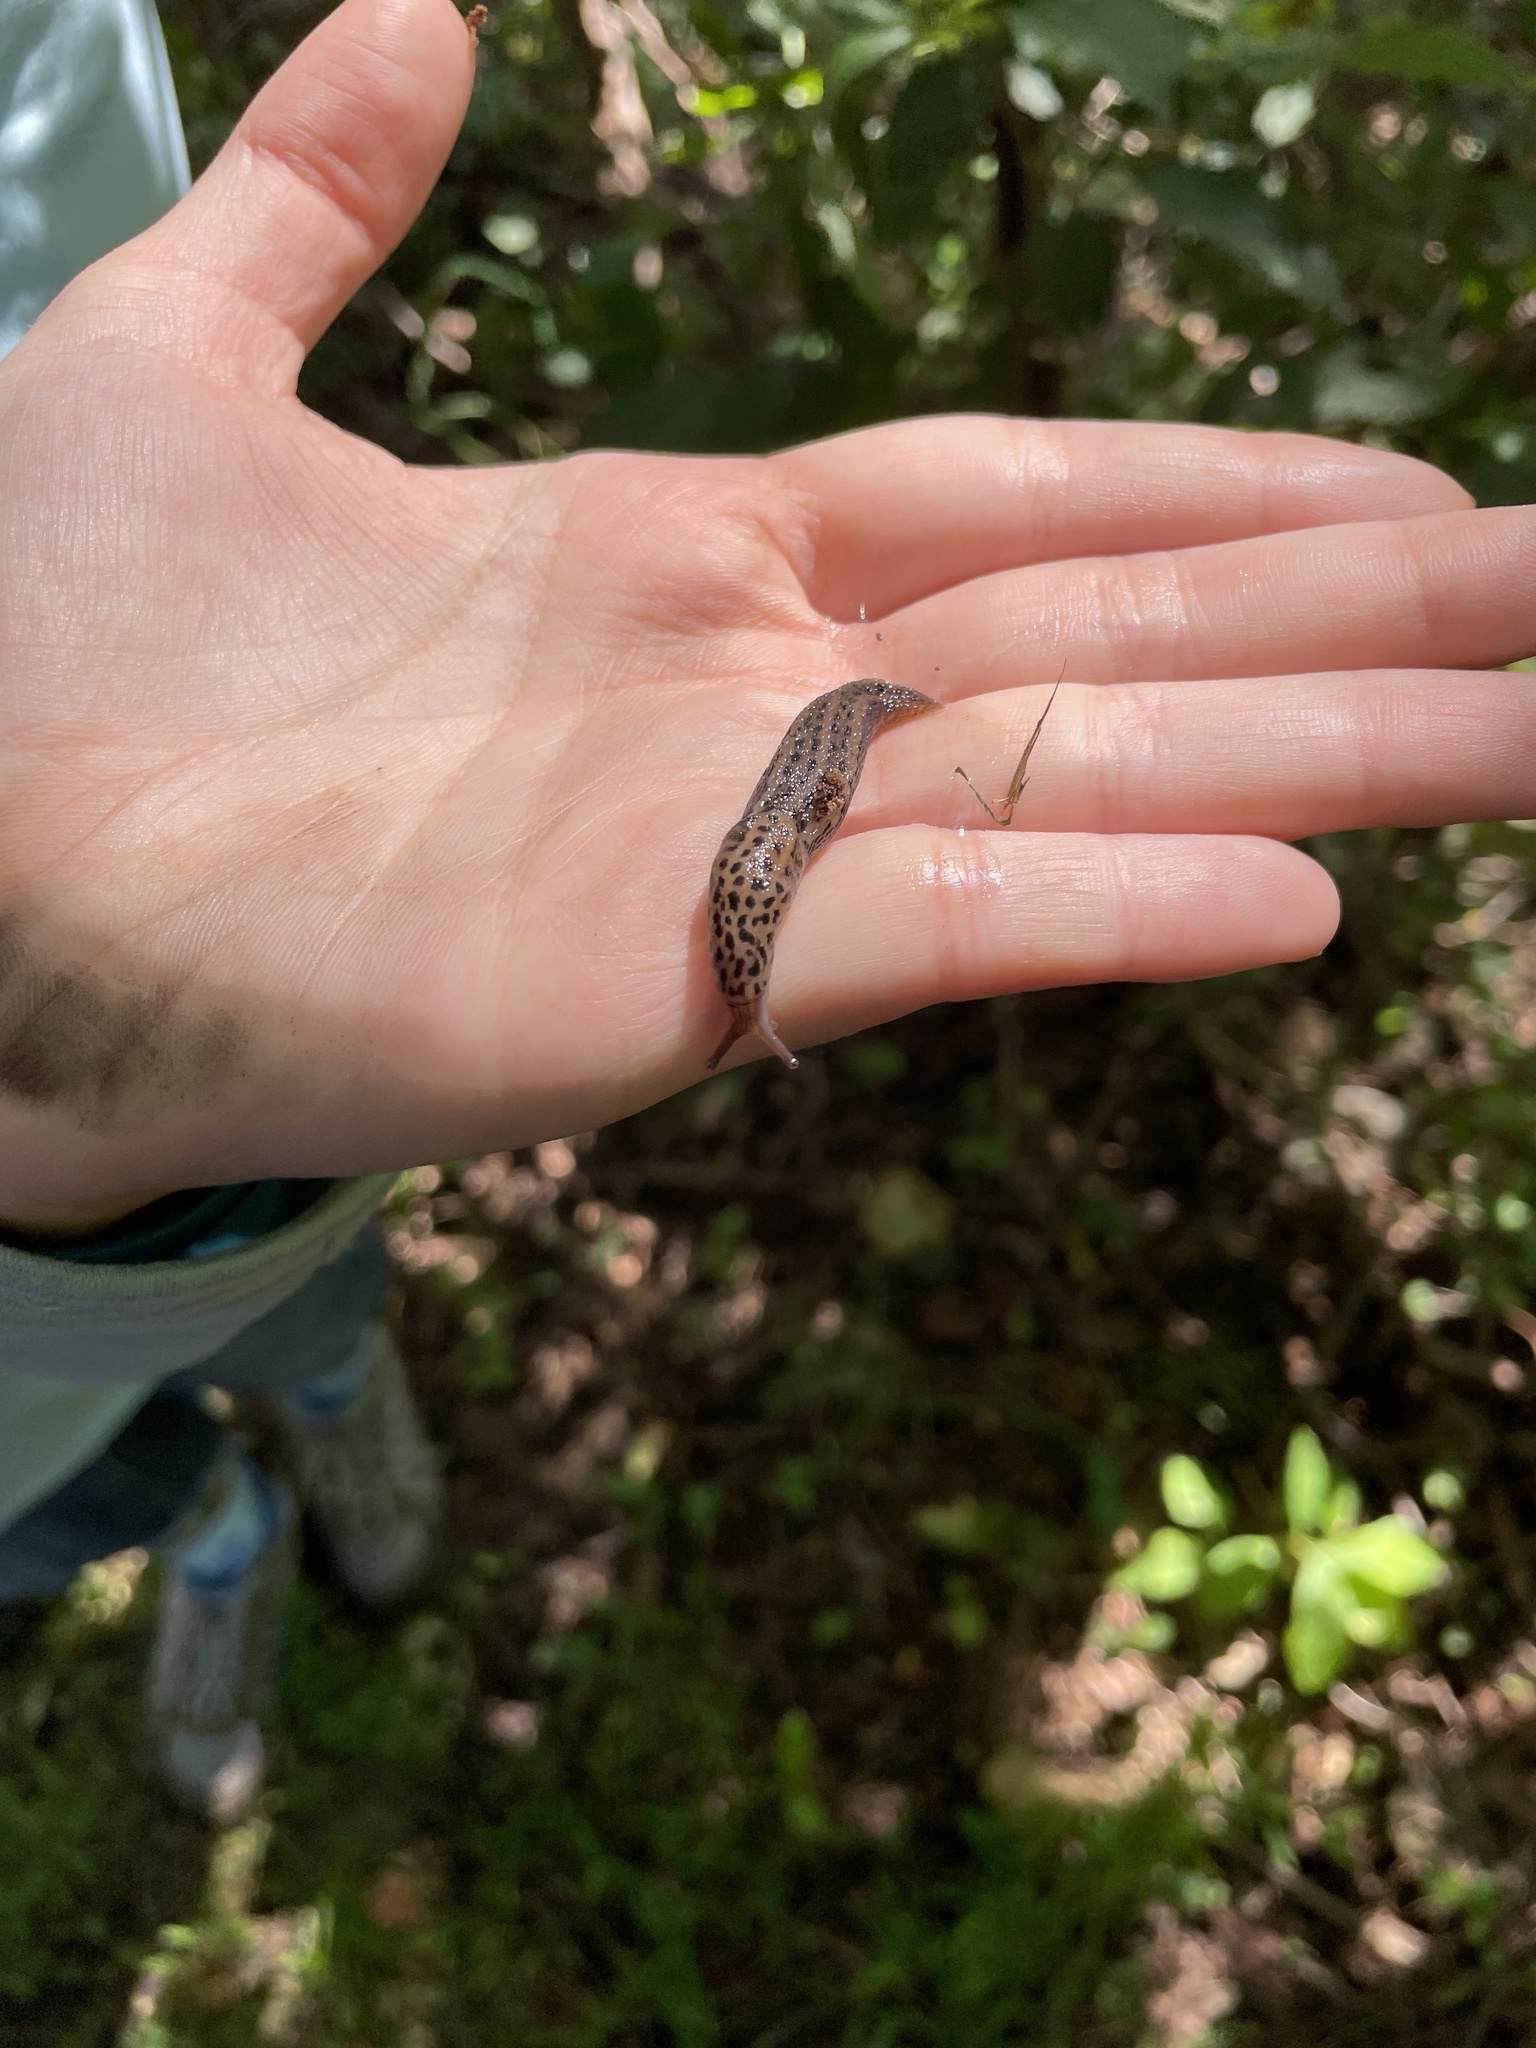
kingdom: Animalia
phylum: Mollusca
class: Gastropoda
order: Stylommatophora
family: Limacidae
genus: Limax
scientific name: Limax maximus
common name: Great grey slug
